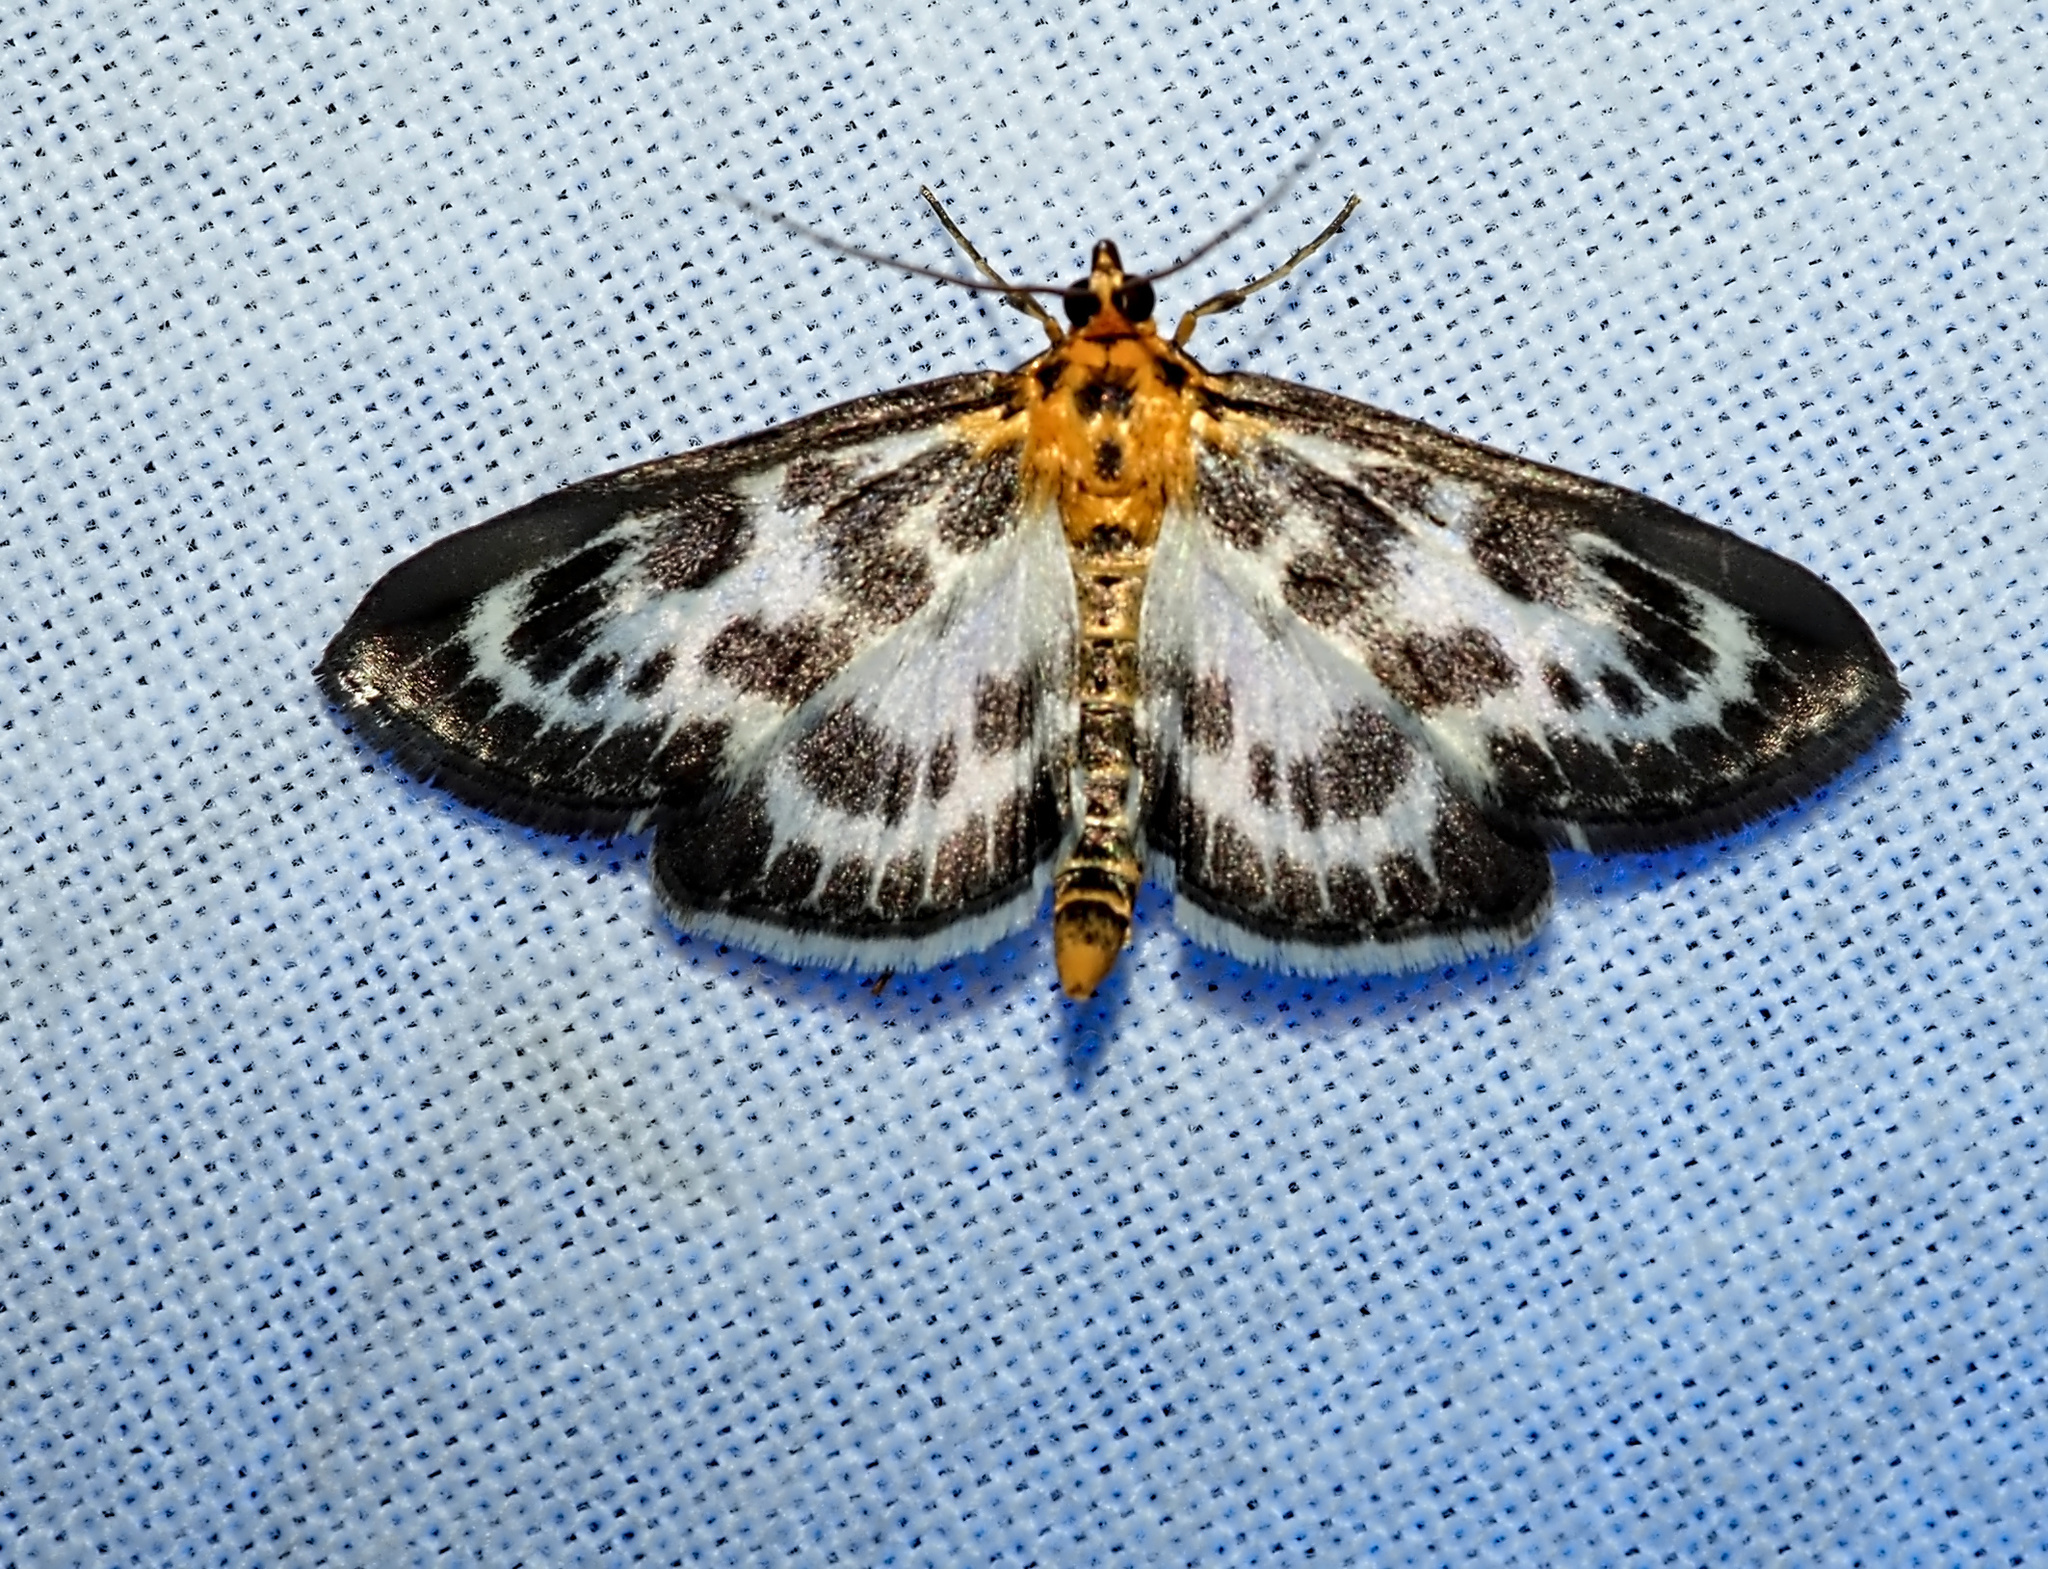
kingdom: Animalia
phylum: Arthropoda
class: Insecta
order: Lepidoptera
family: Crambidae
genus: Anania
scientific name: Anania hortulata
